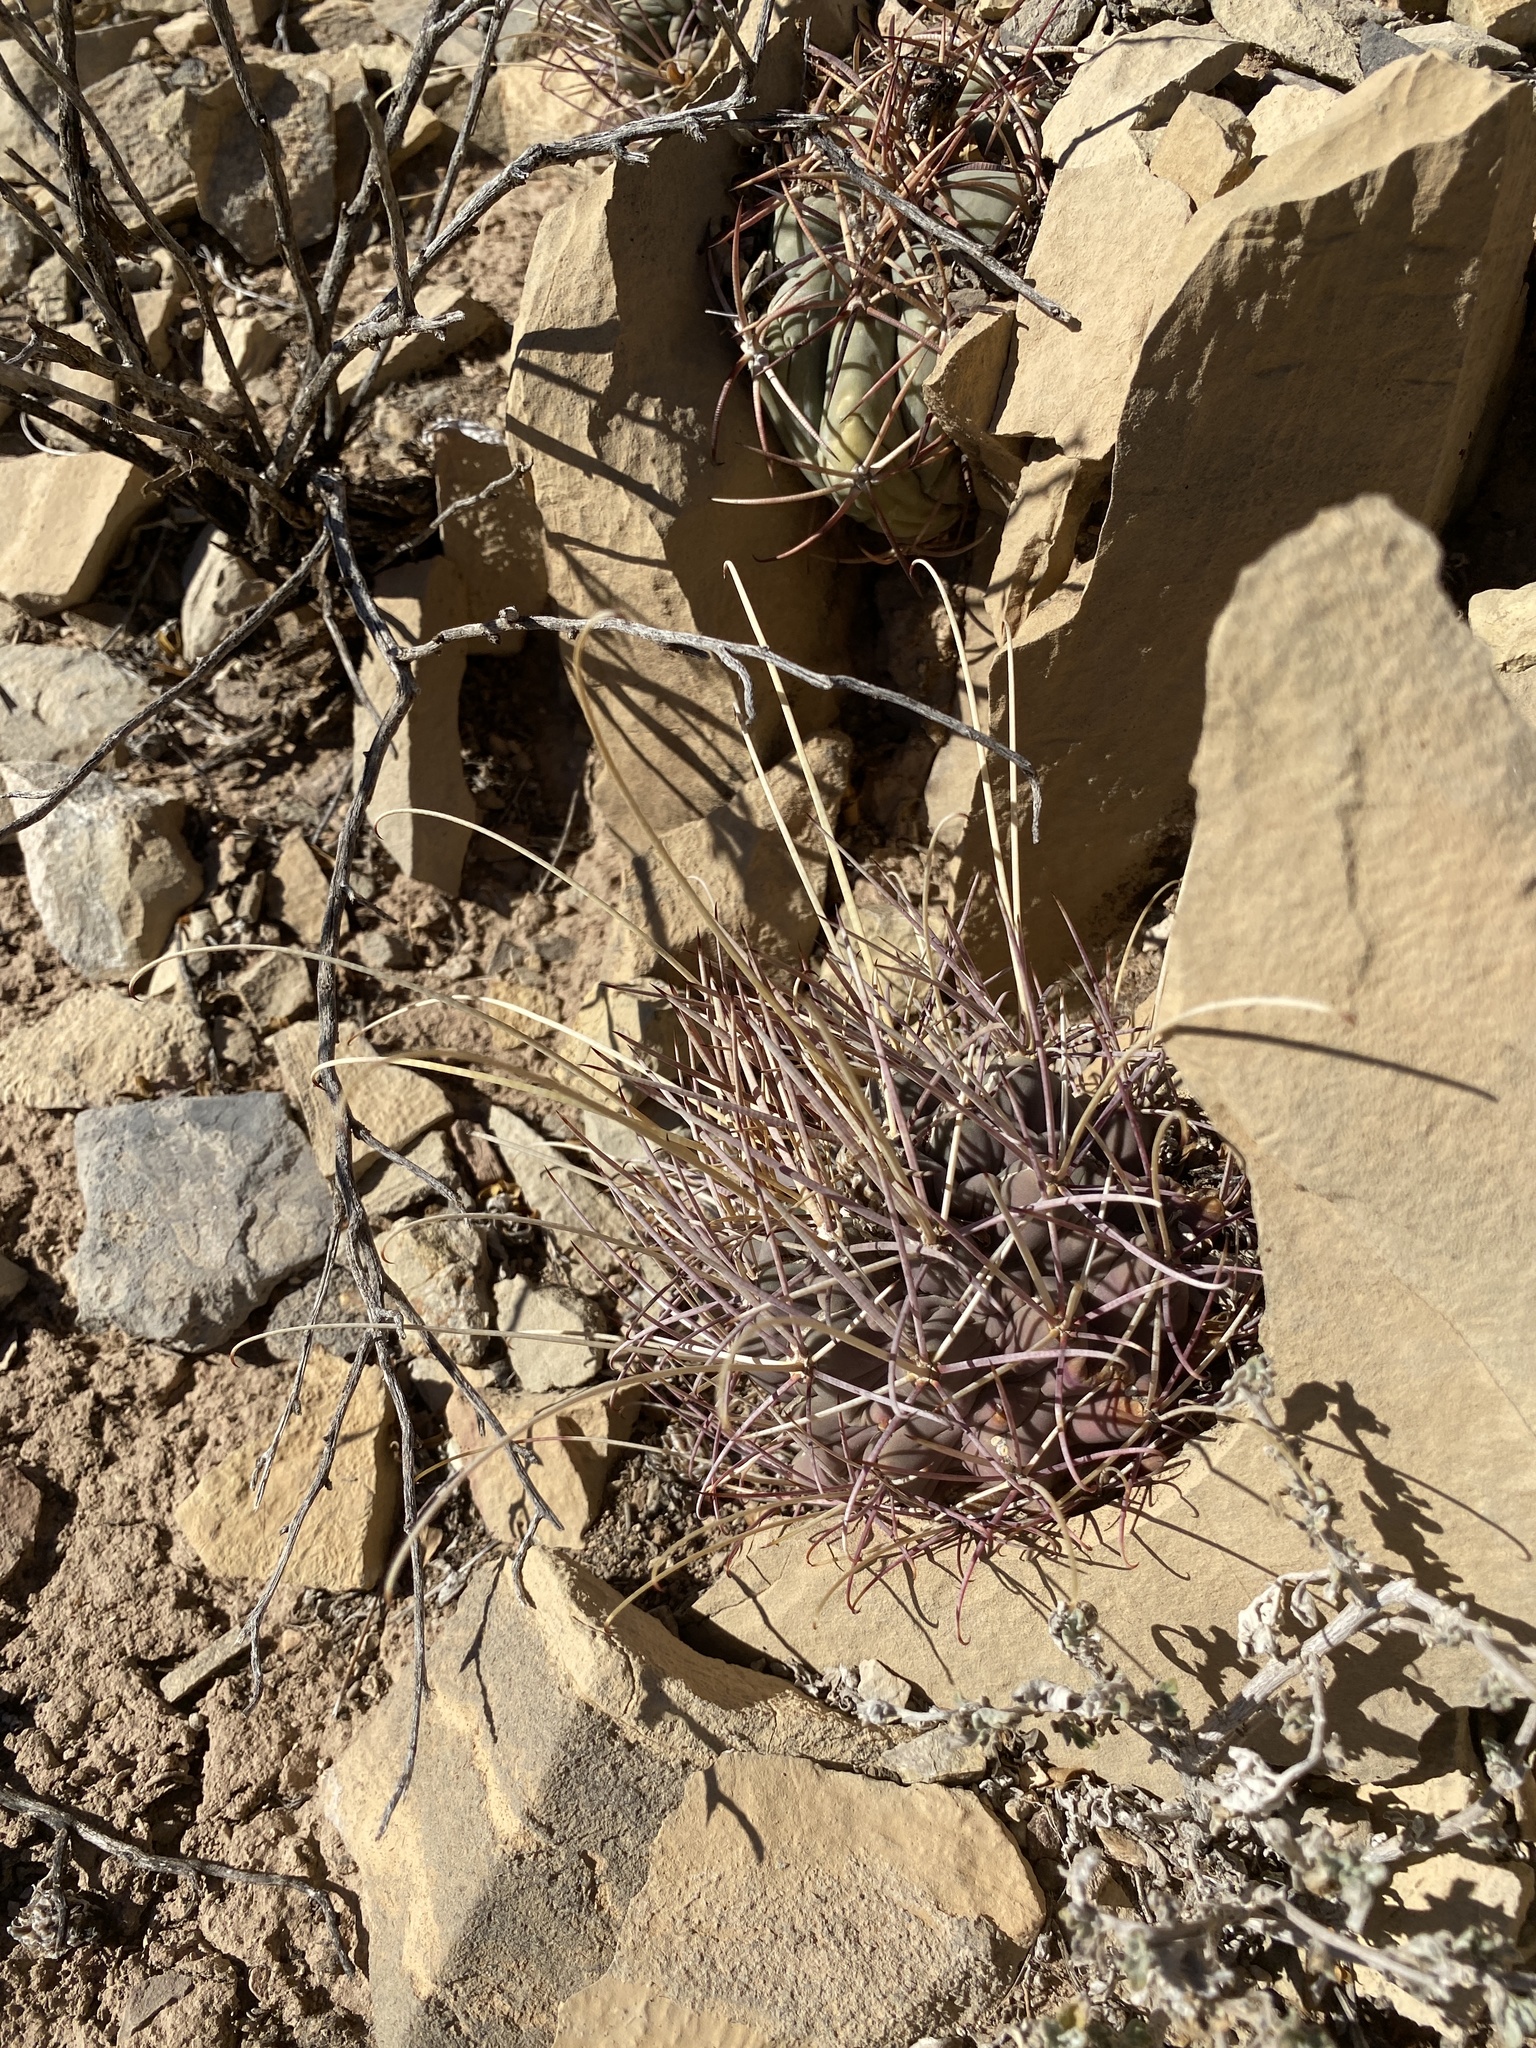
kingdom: Plantae
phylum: Tracheophyta
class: Magnoliopsida
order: Caryophyllales
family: Cactaceae
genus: Ferocactus
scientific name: Ferocactus uncinatus
